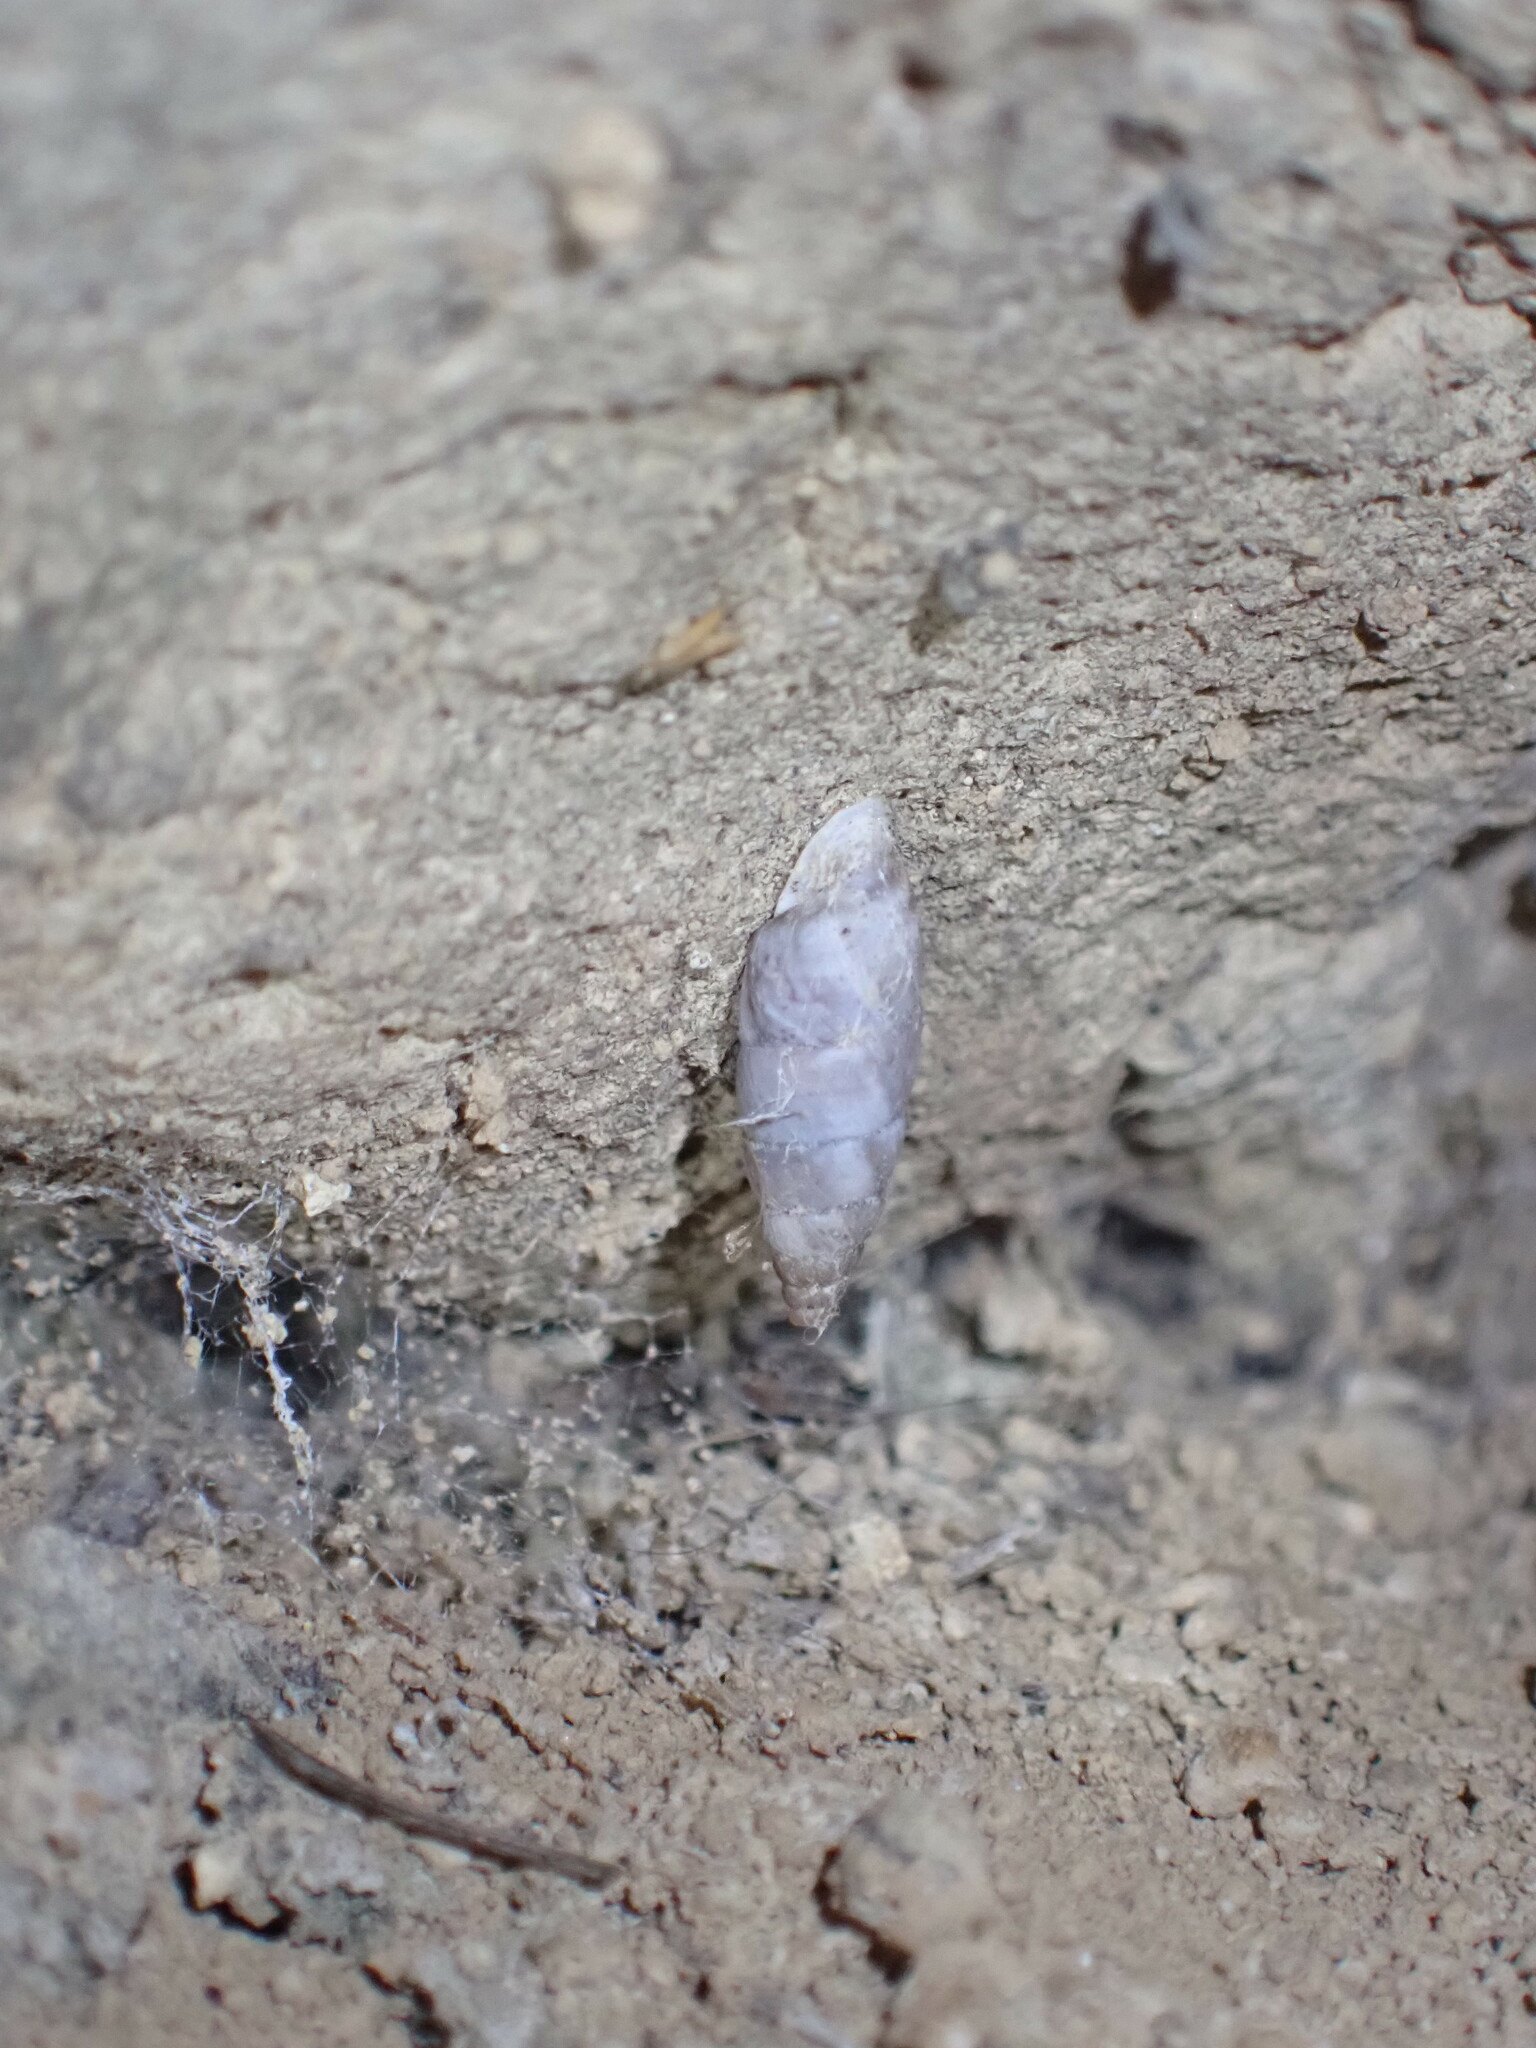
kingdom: Animalia
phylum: Mollusca
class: Gastropoda
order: Stylommatophora
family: Chondrinidae
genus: Solatopupa
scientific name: Solatopupa similis
